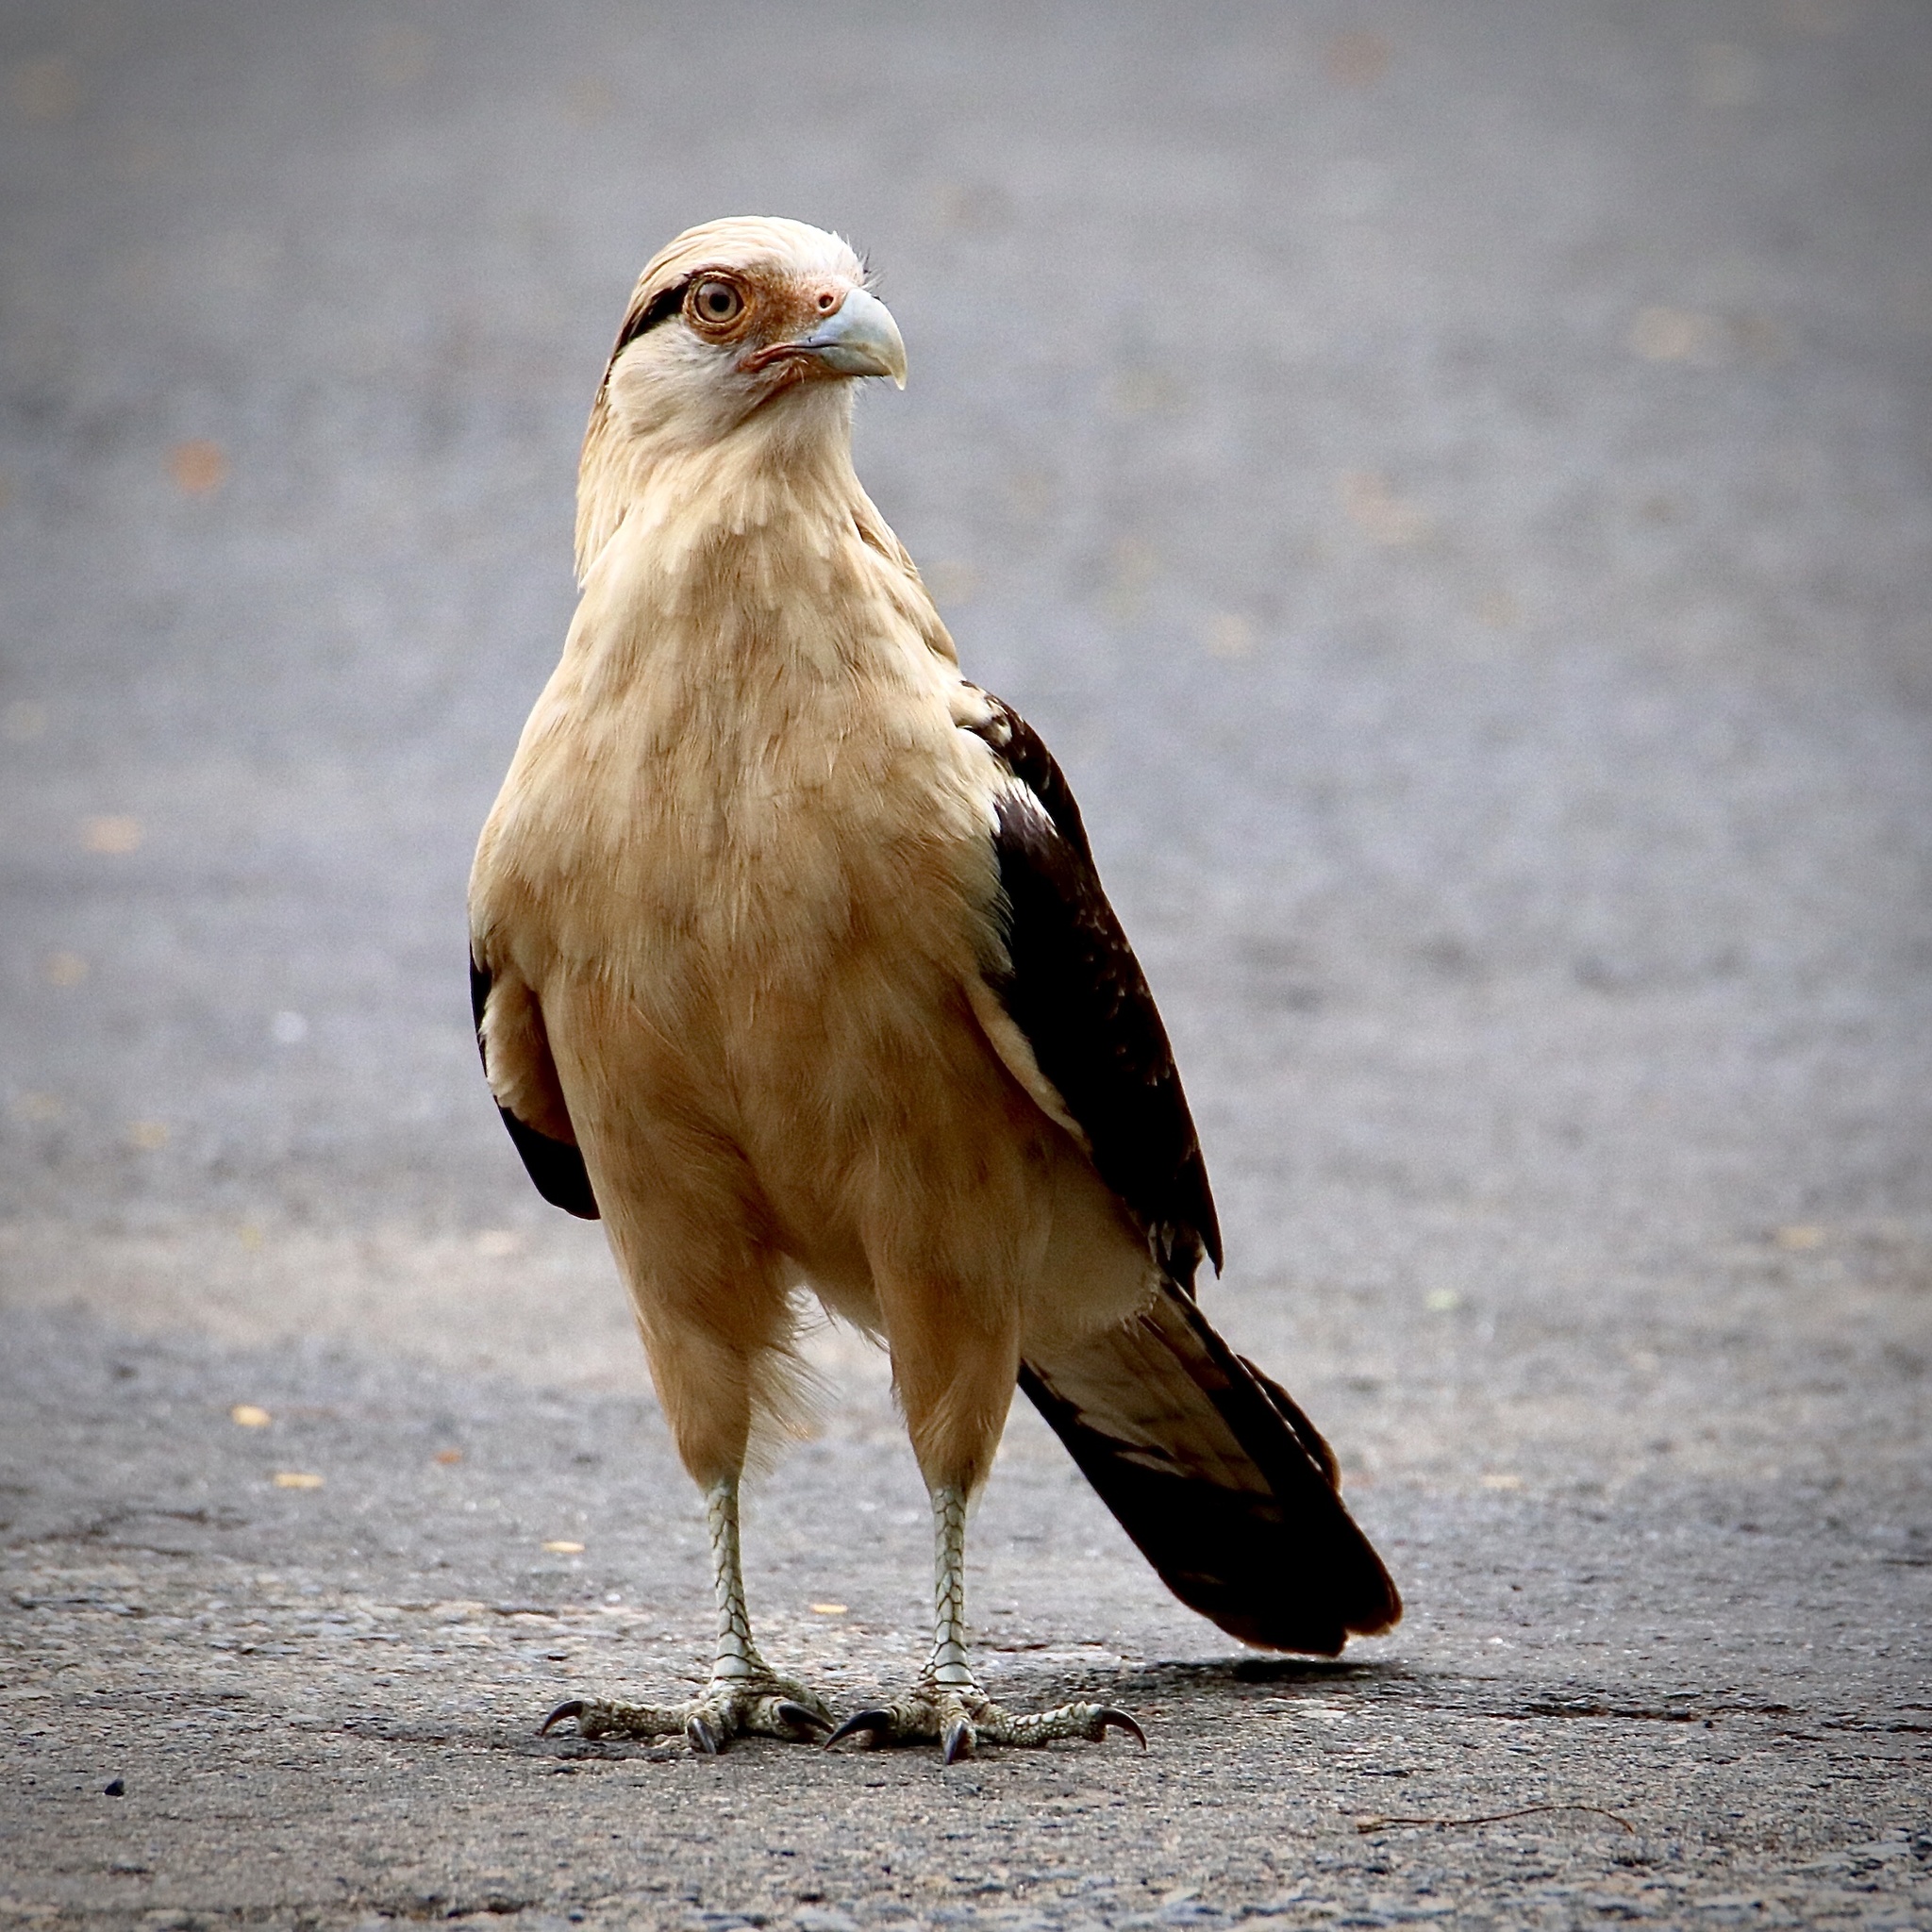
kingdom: Animalia
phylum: Chordata
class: Aves
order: Falconiformes
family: Falconidae
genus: Daptrius
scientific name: Daptrius
